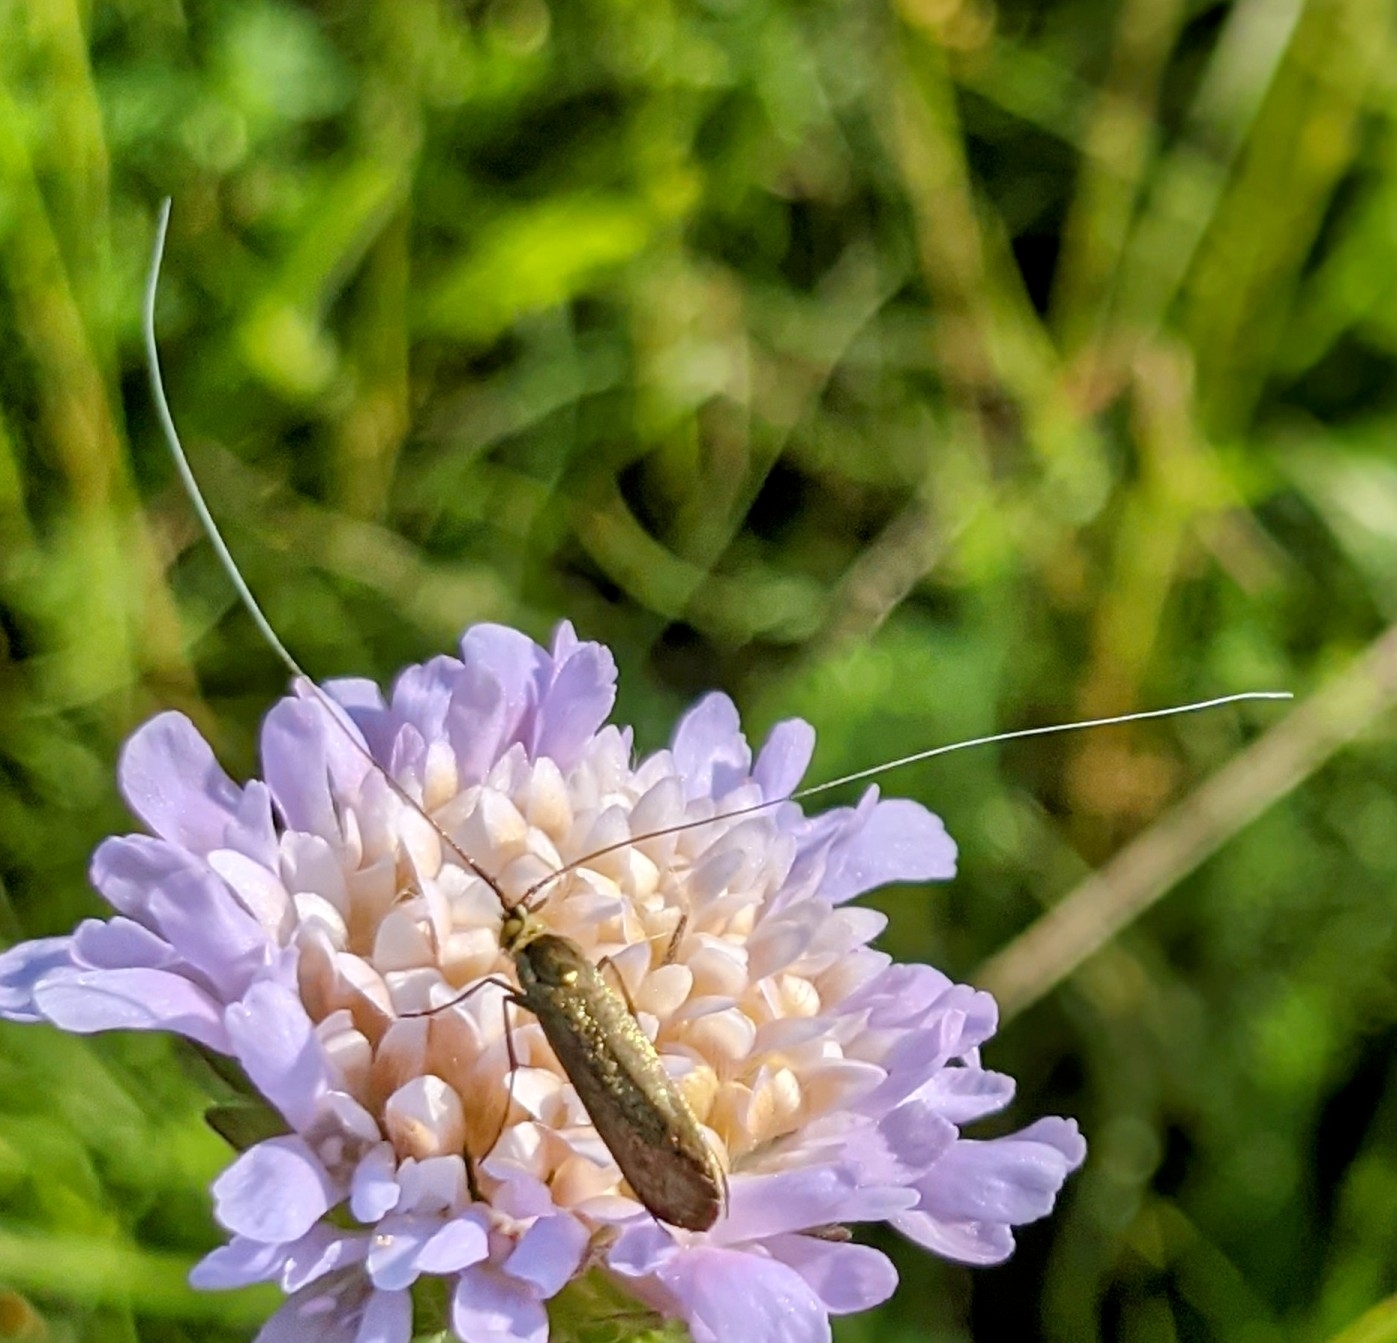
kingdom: Animalia
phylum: Arthropoda
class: Insecta
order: Lepidoptera
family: Adelidae
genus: Nemophora
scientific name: Nemophora metallica
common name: Brassy long-horn
